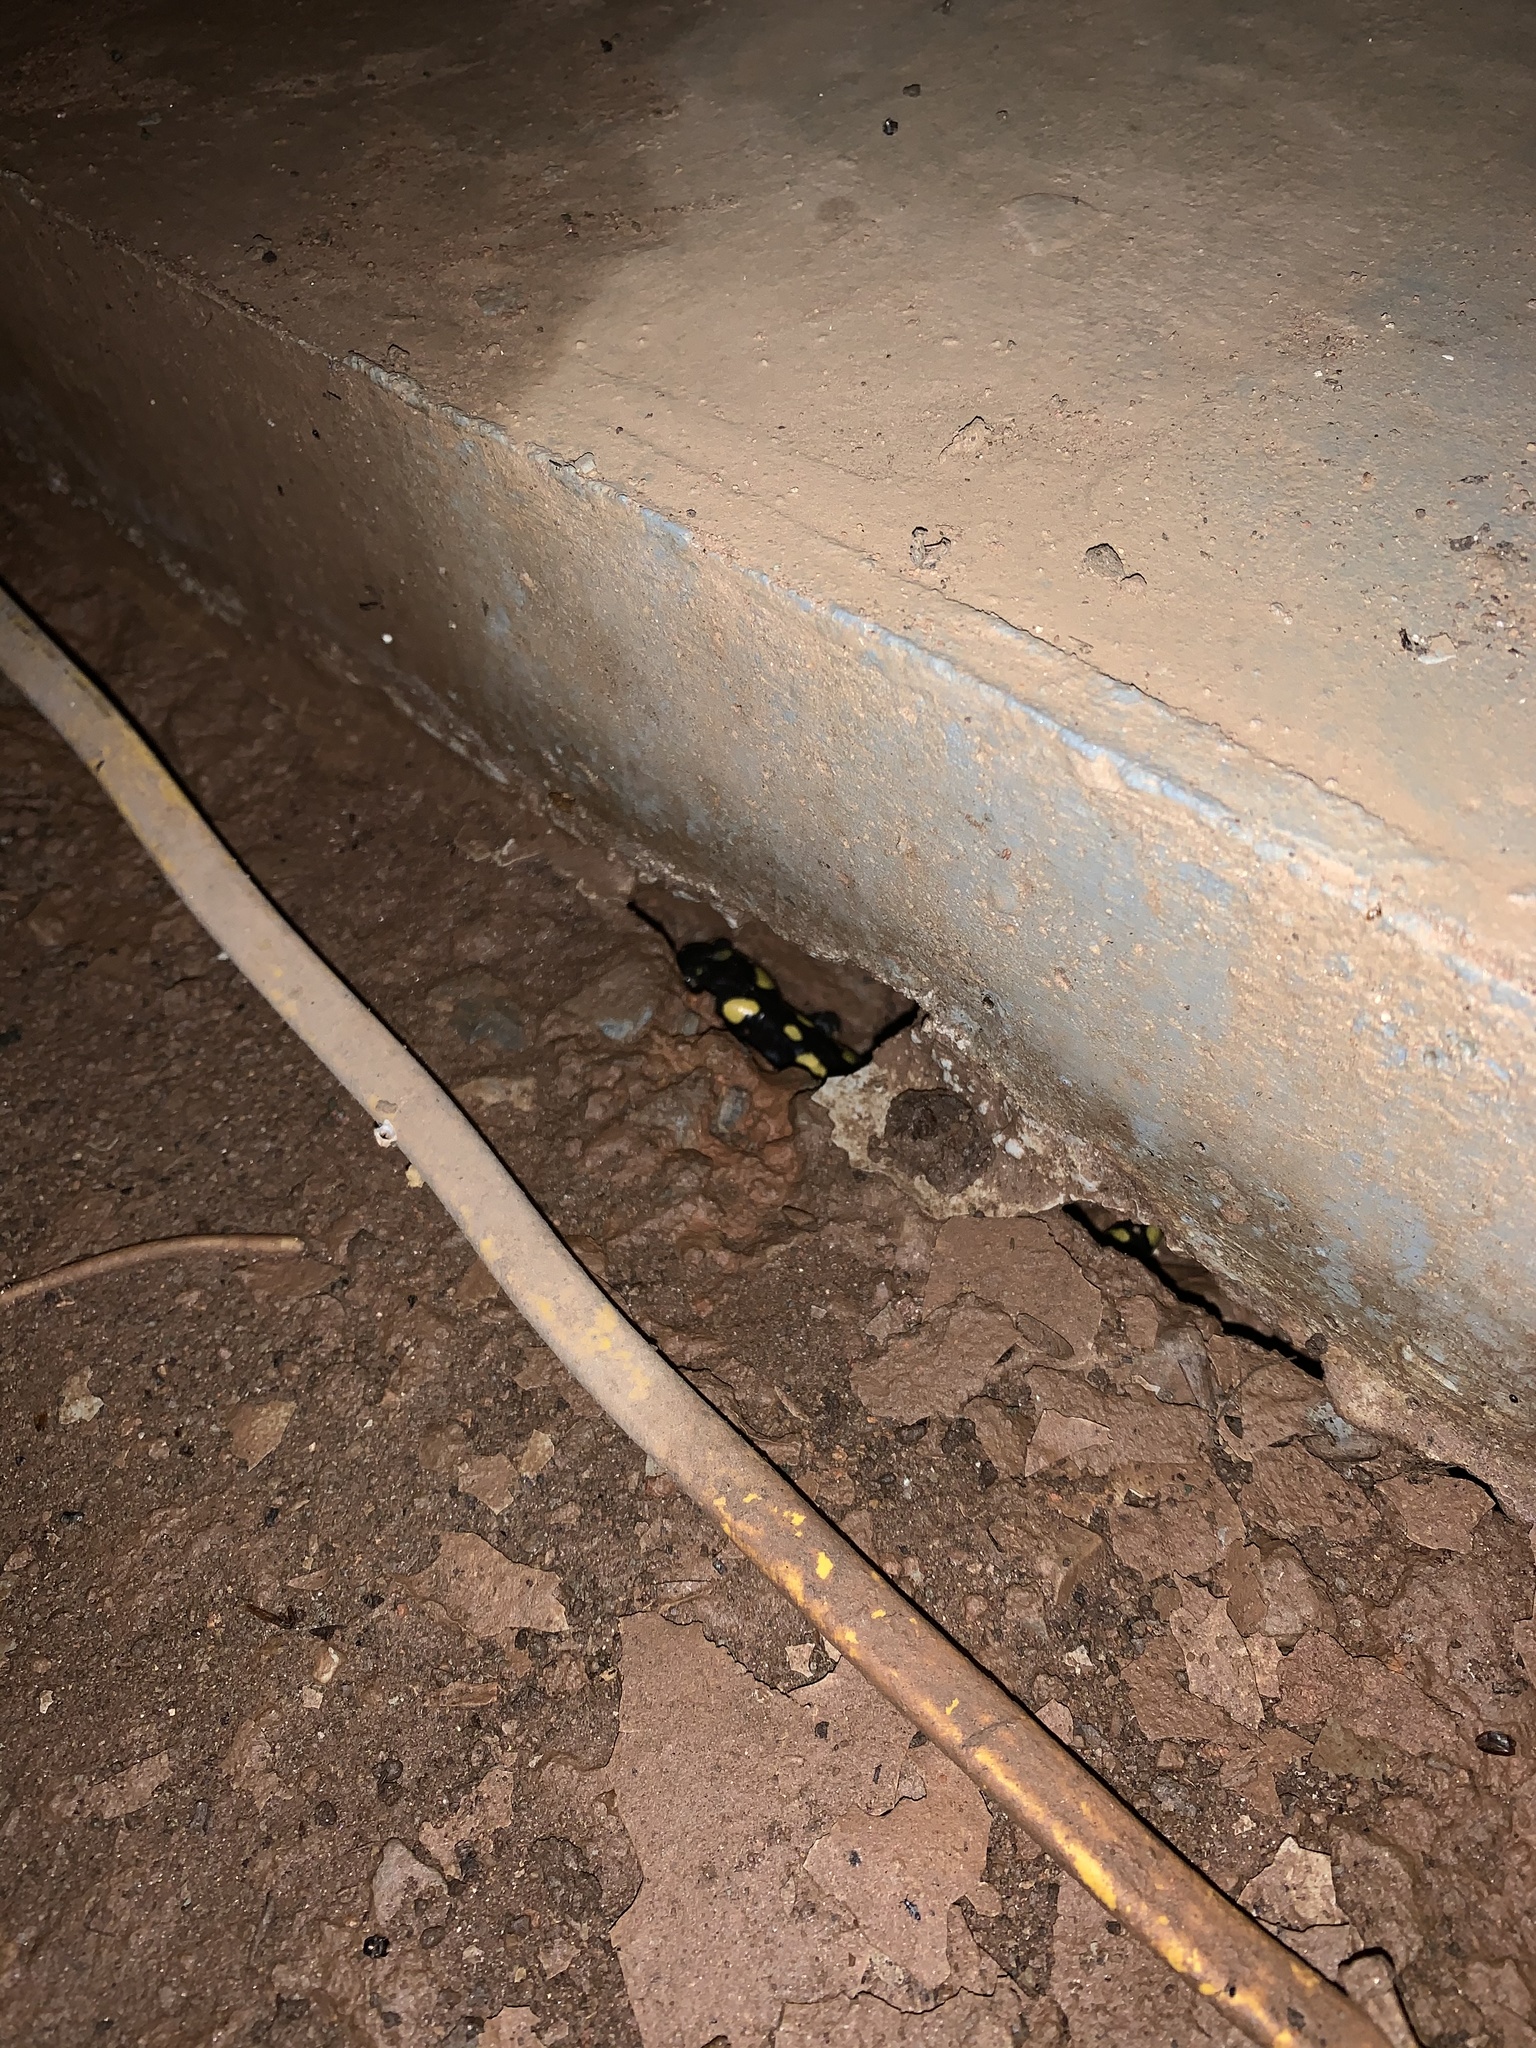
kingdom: Animalia
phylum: Chordata
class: Amphibia
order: Caudata
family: Ambystomatidae
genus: Ambystoma
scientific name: Ambystoma maculatum
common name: Spotted salamander
